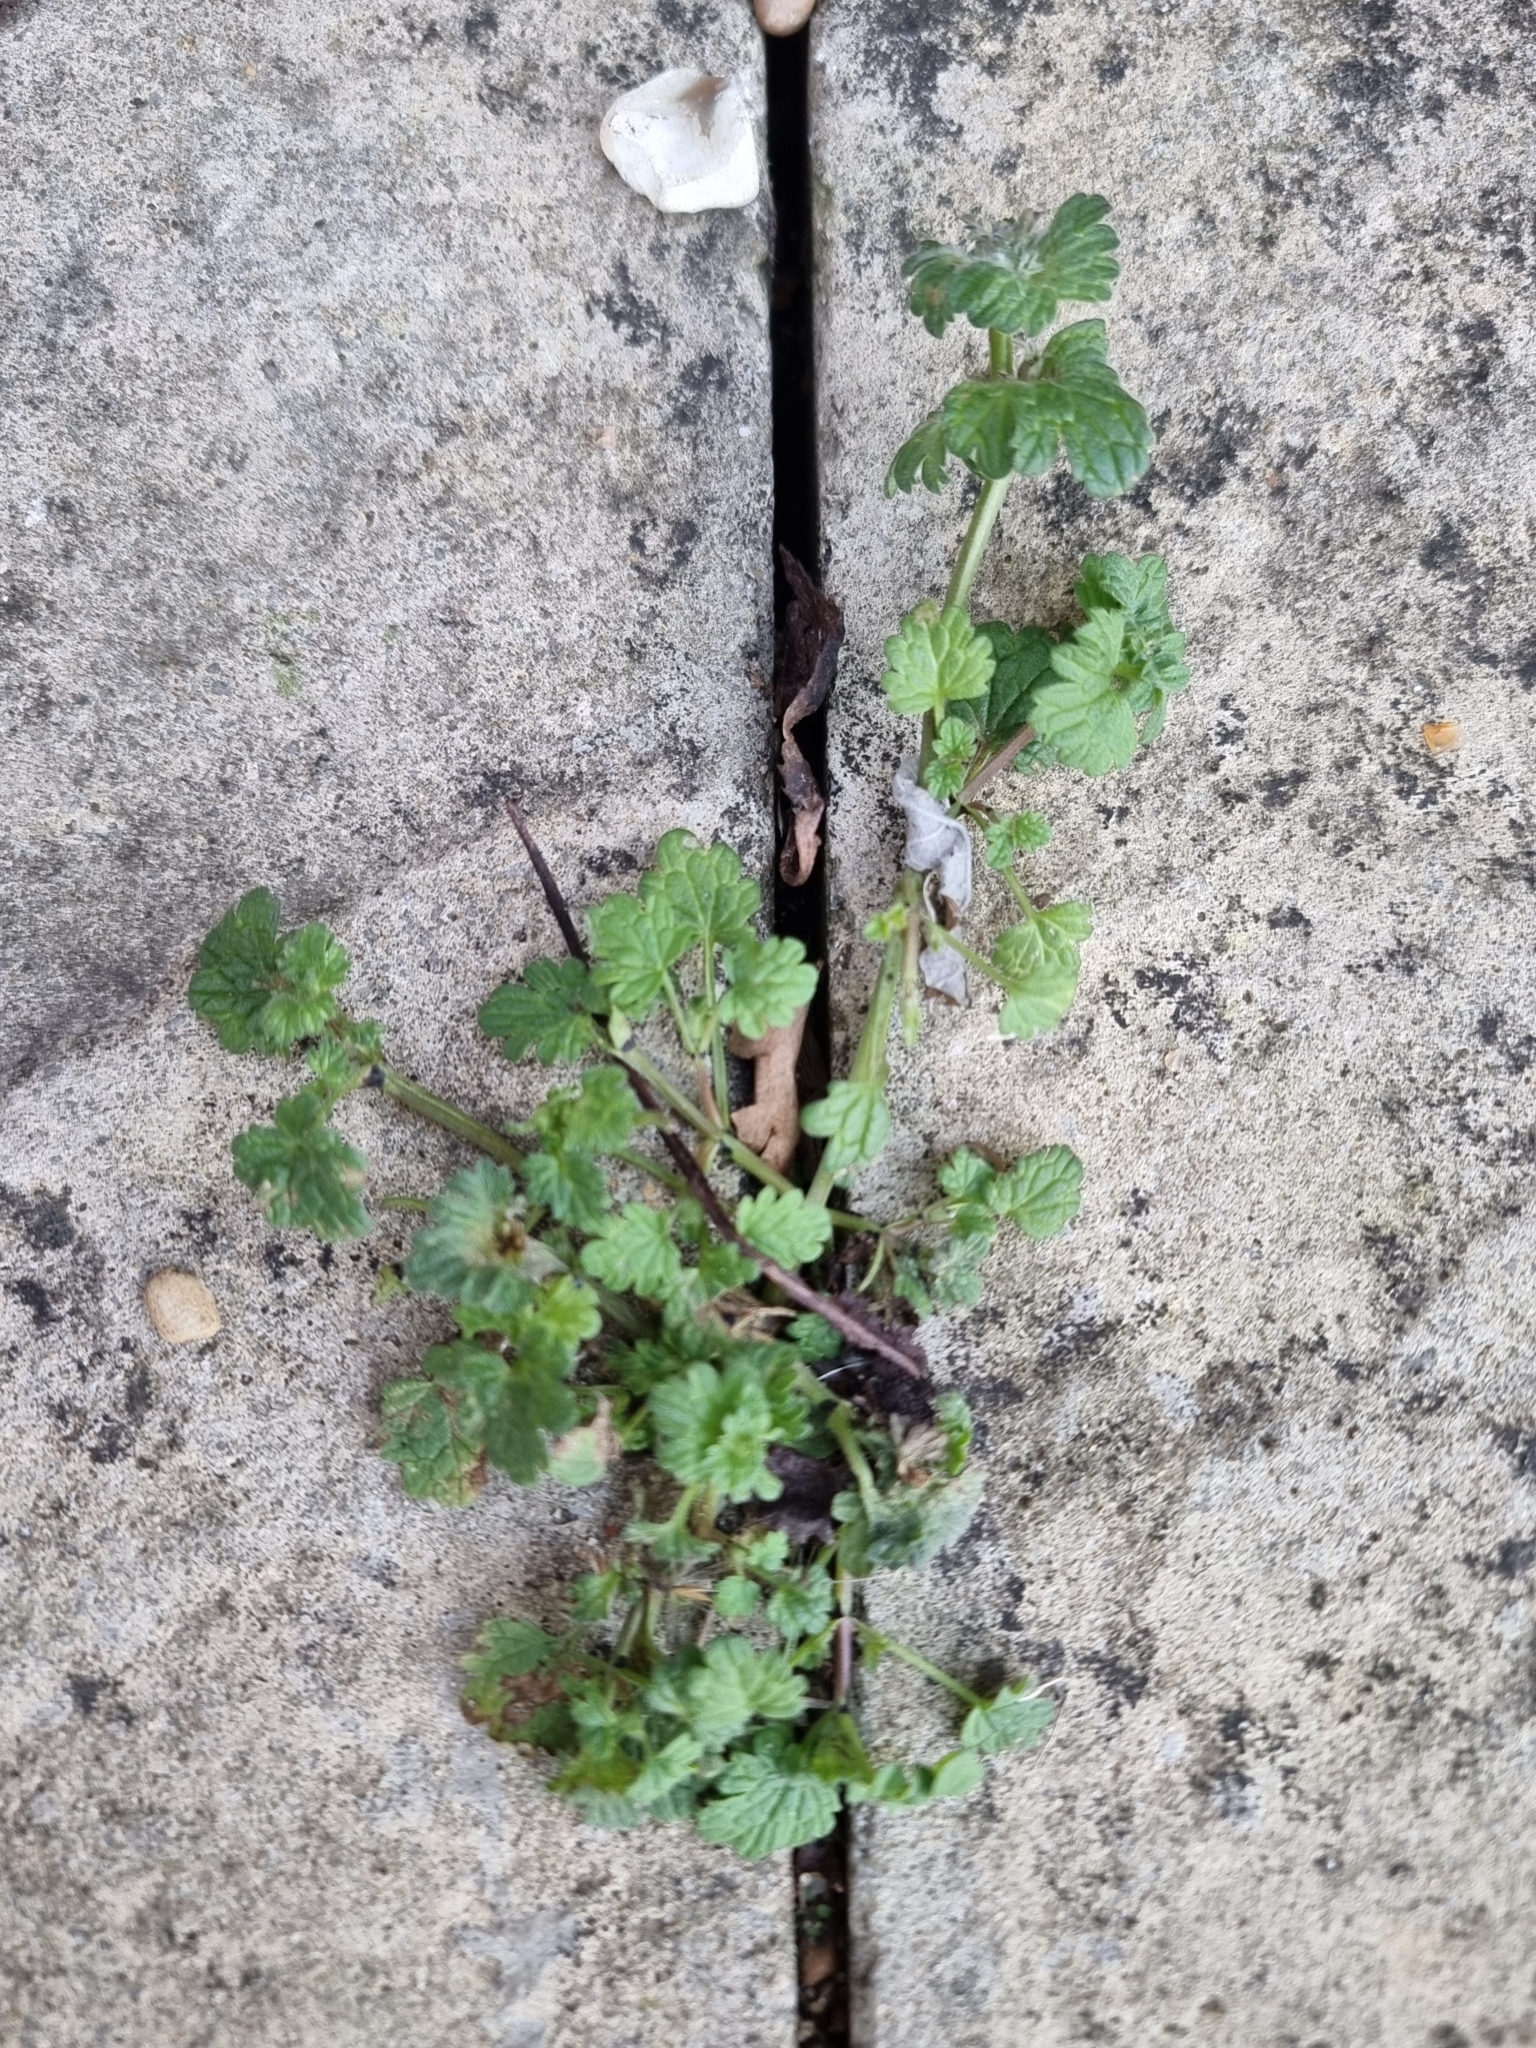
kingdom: Plantae
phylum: Tracheophyta
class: Magnoliopsida
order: Lamiales
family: Lamiaceae
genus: Lamium
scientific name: Lamium amplexicaule
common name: Henbit dead-nettle
